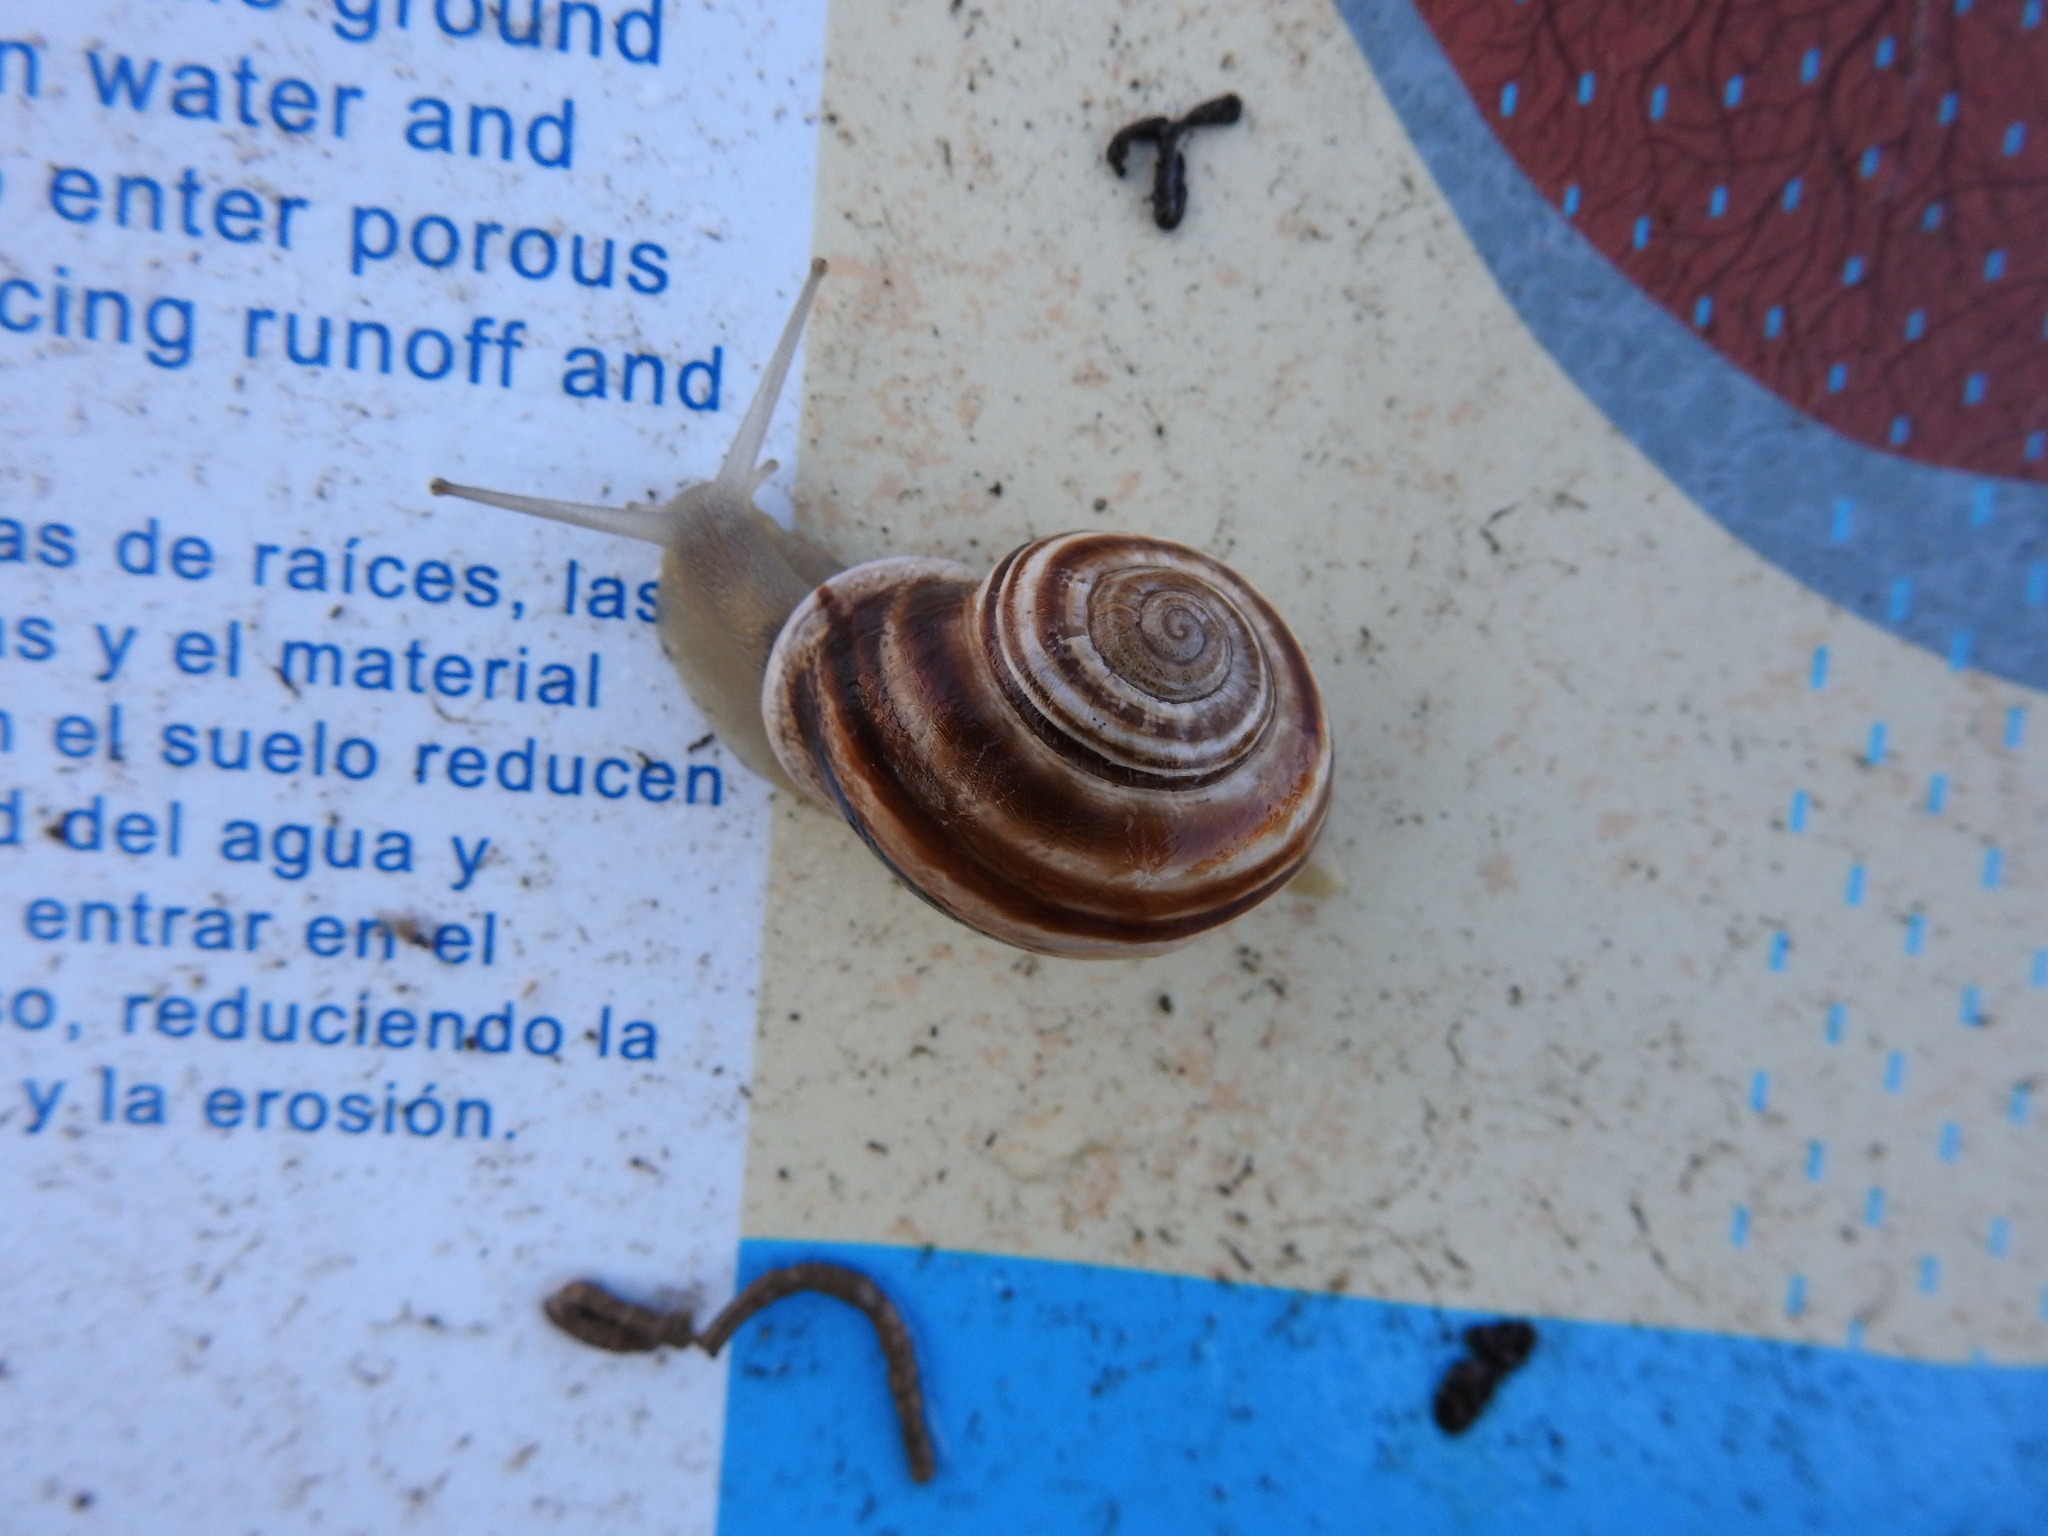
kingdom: Animalia
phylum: Mollusca
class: Gastropoda
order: Stylommatophora
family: Helicidae
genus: Otala
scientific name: Otala lactea
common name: Milk snail
